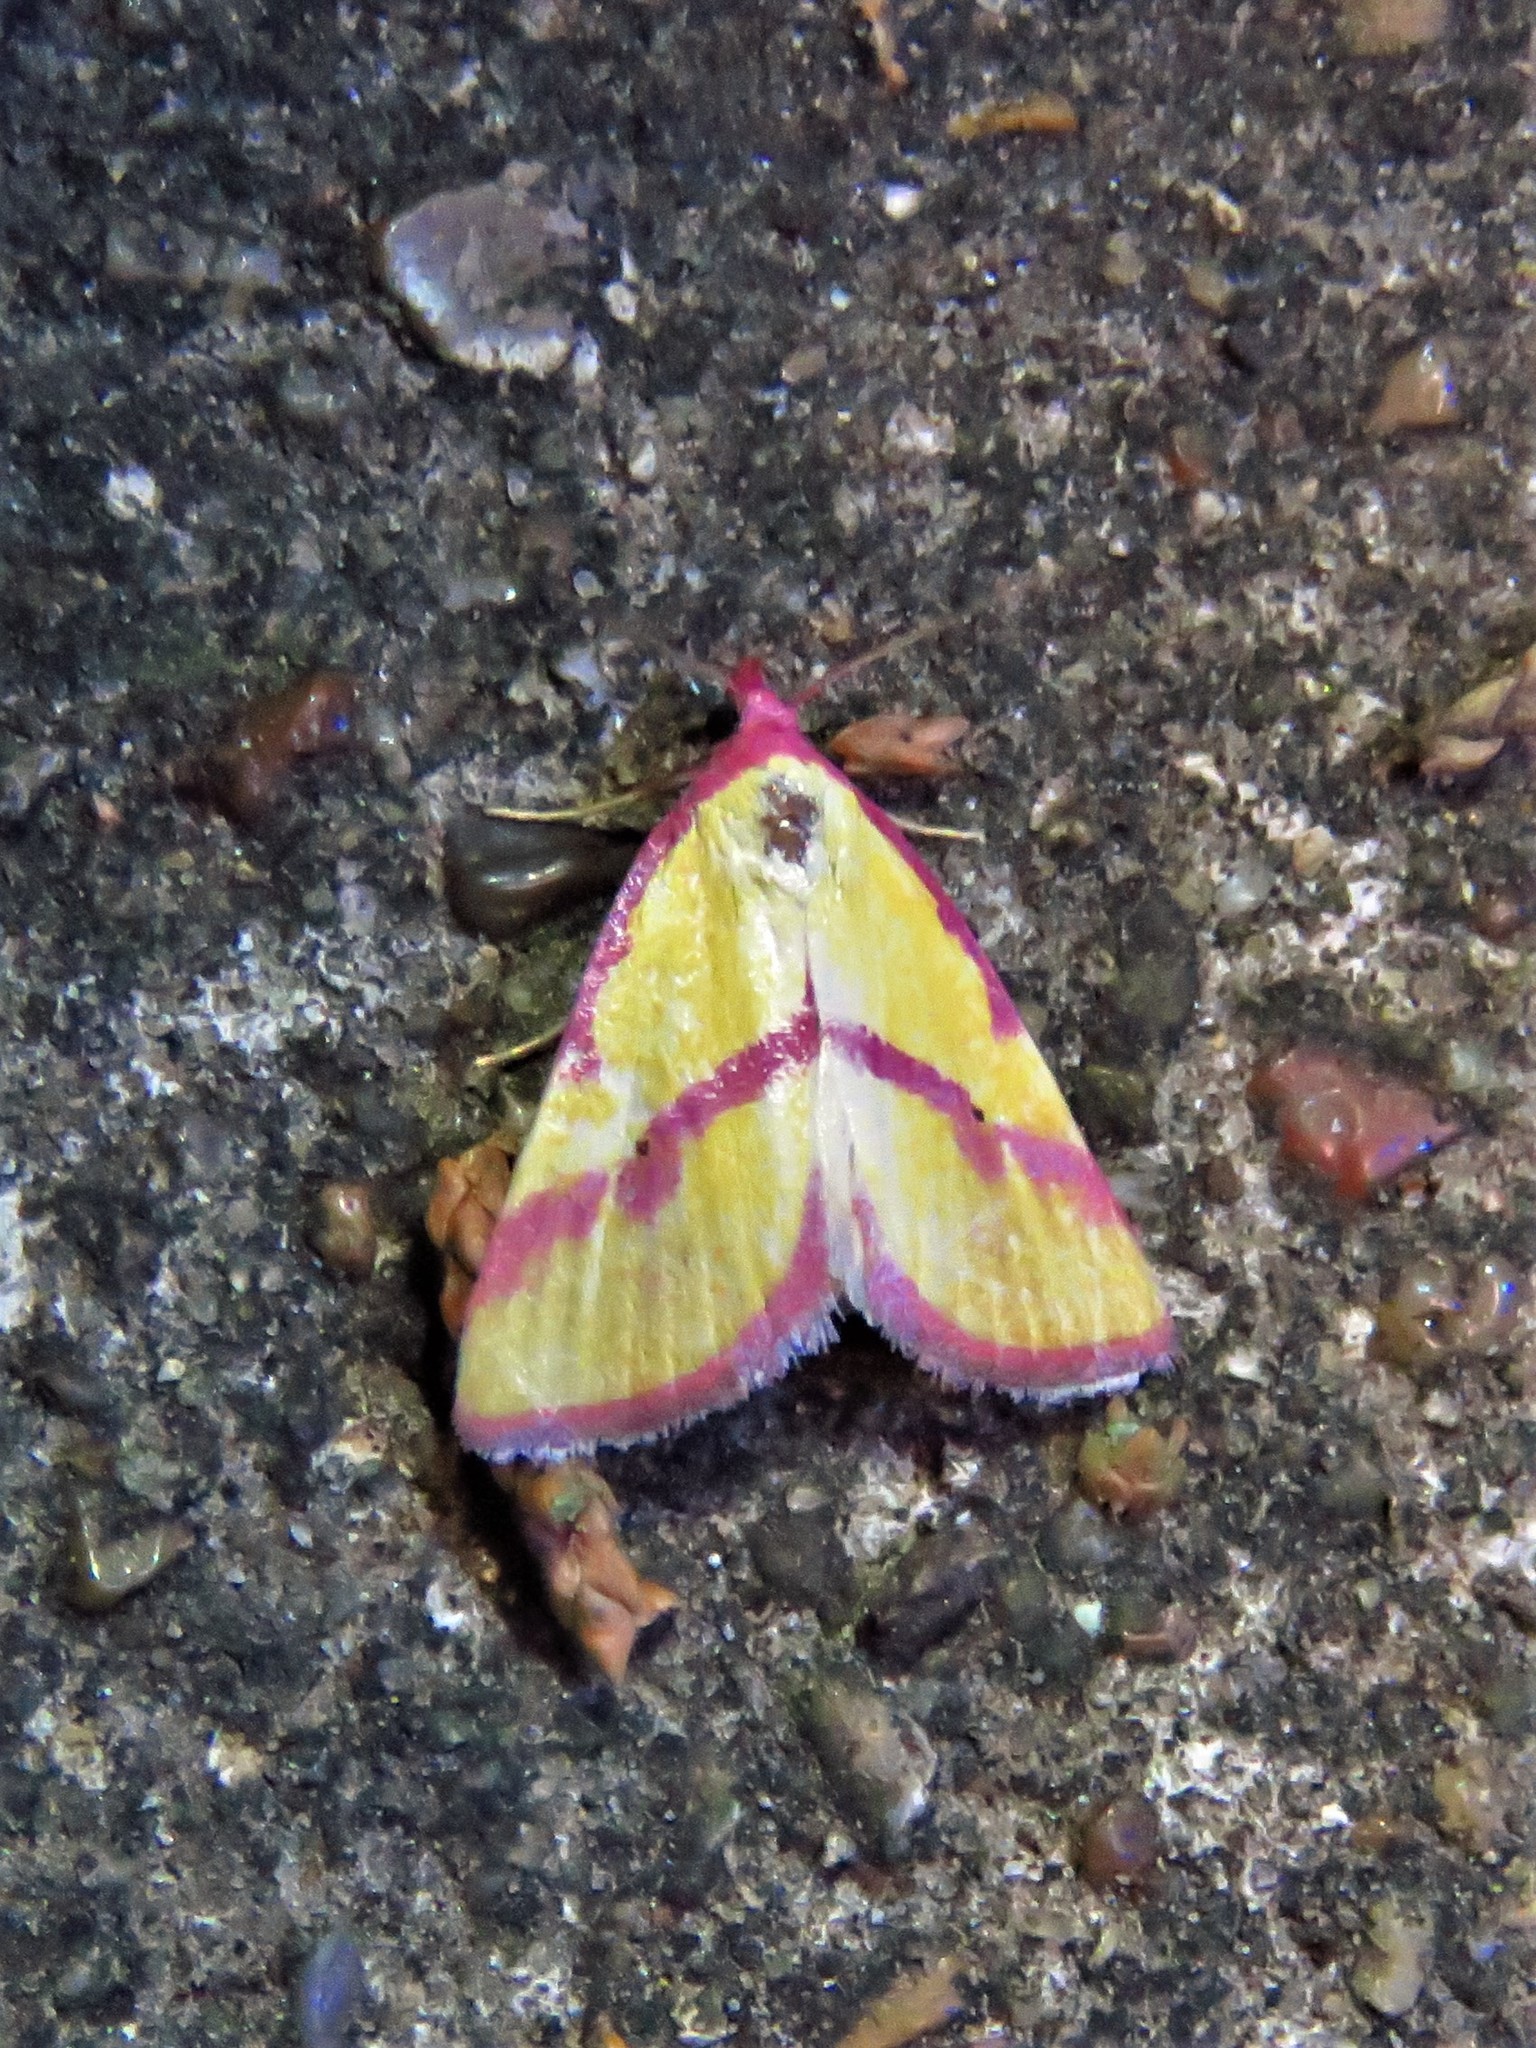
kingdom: Animalia
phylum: Arthropoda
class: Insecta
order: Lepidoptera
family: Erebidae
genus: Phytometra
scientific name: Phytometra ernestinana
